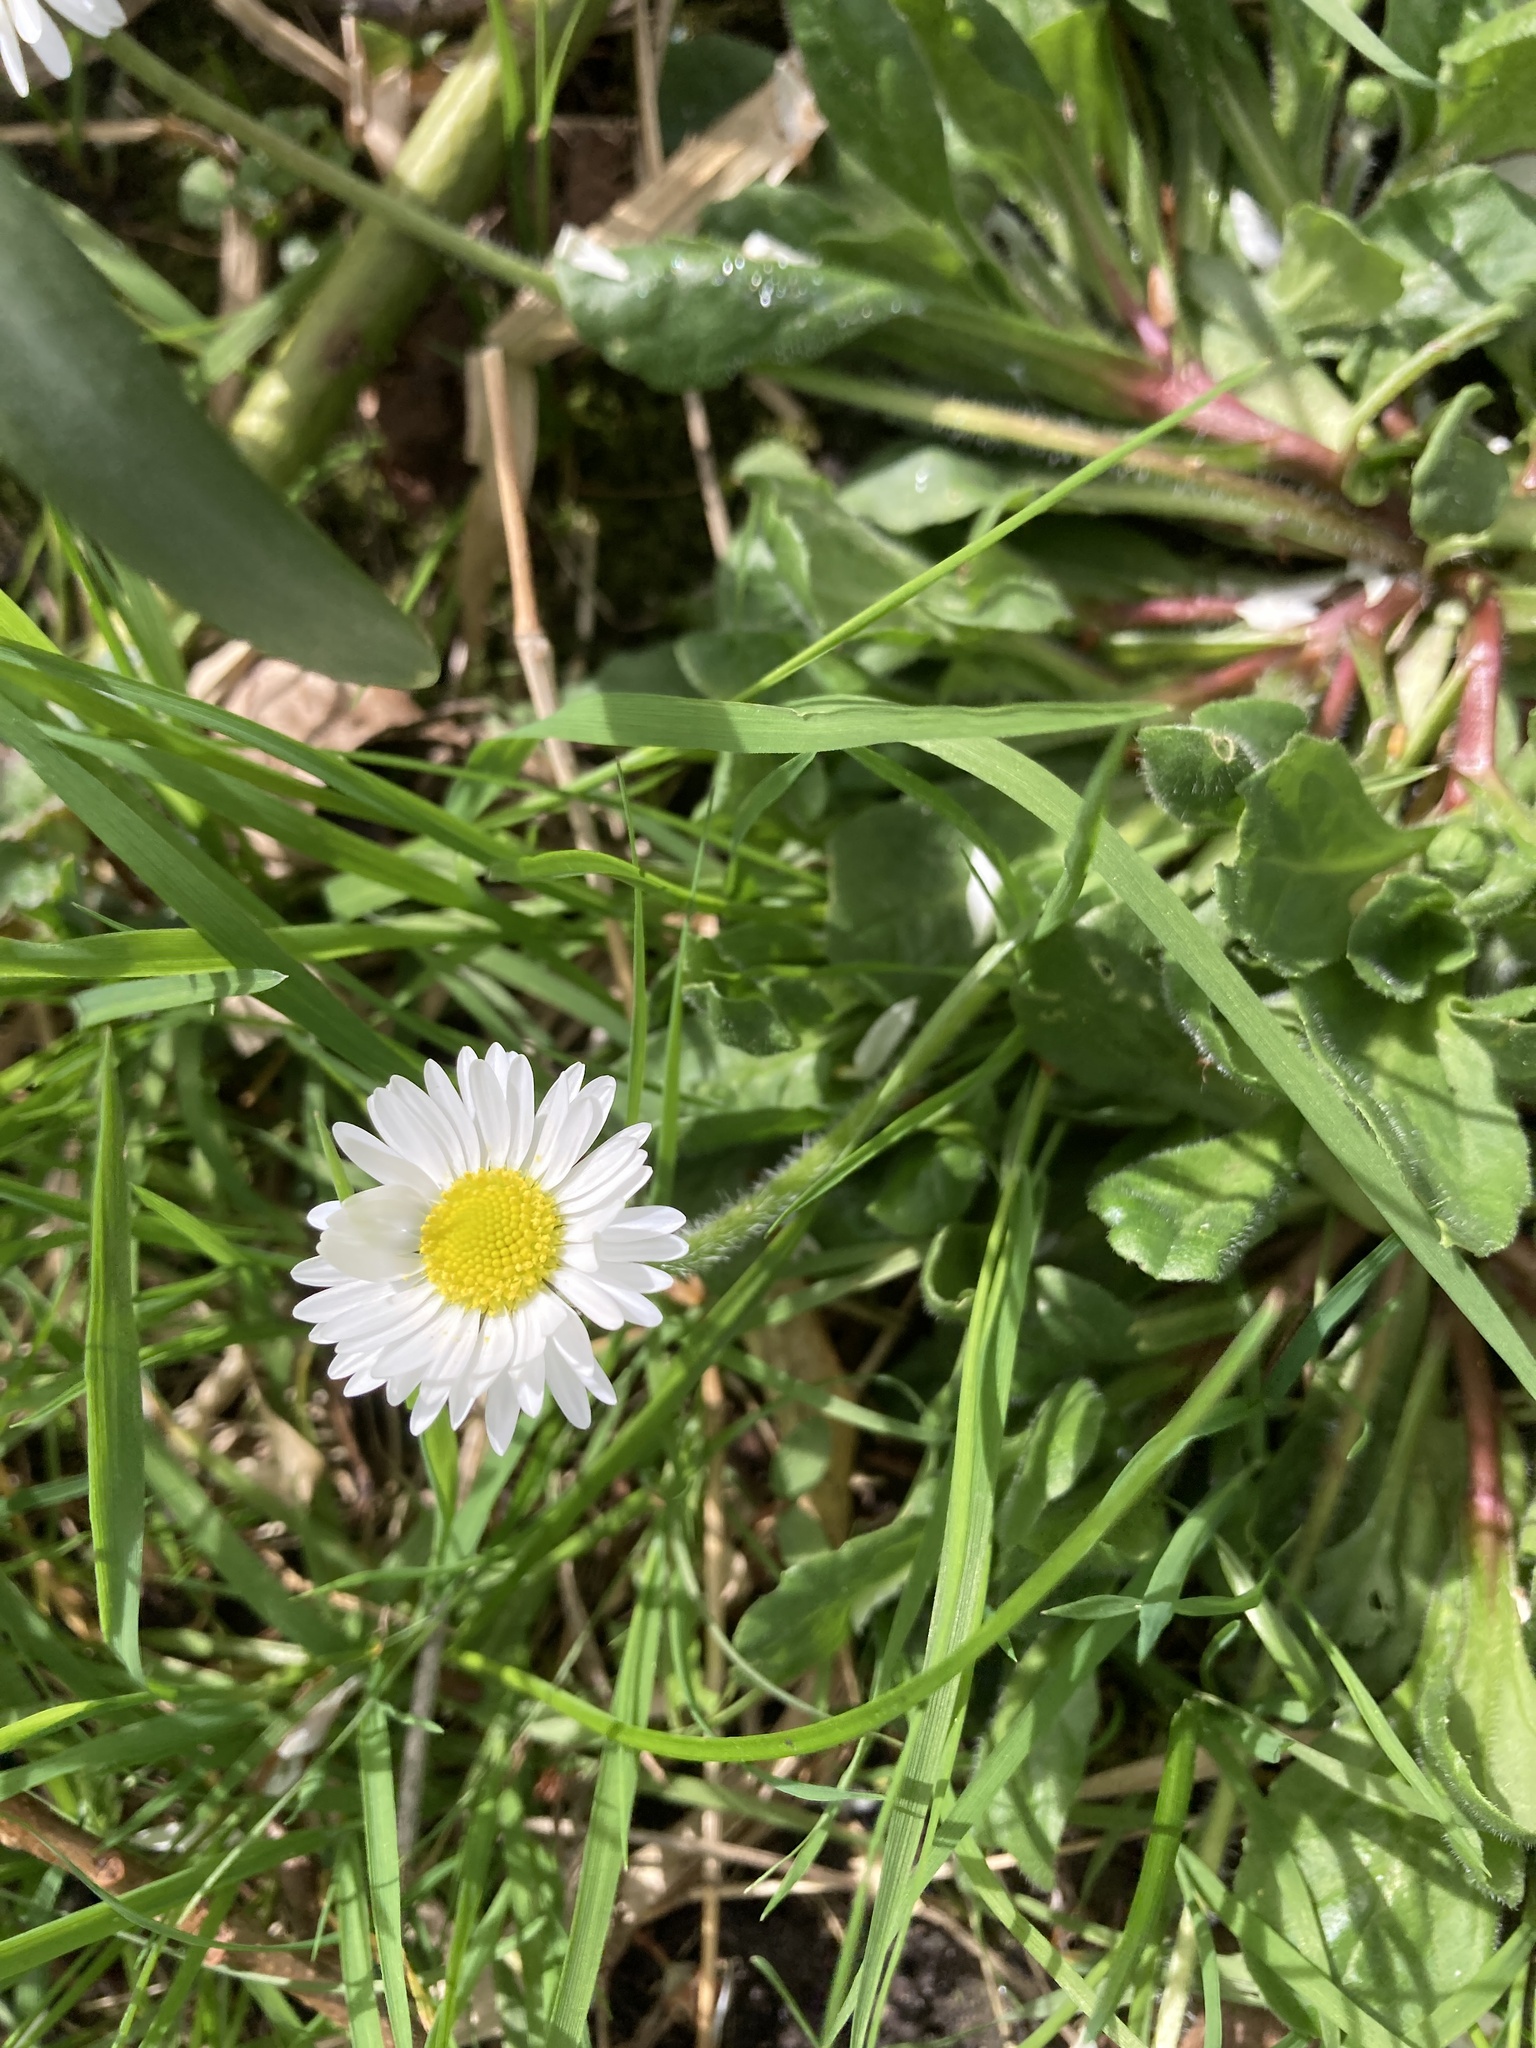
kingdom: Plantae
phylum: Tracheophyta
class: Magnoliopsida
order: Asterales
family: Asteraceae
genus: Bellis
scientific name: Bellis perennis
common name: Lawndaisy
